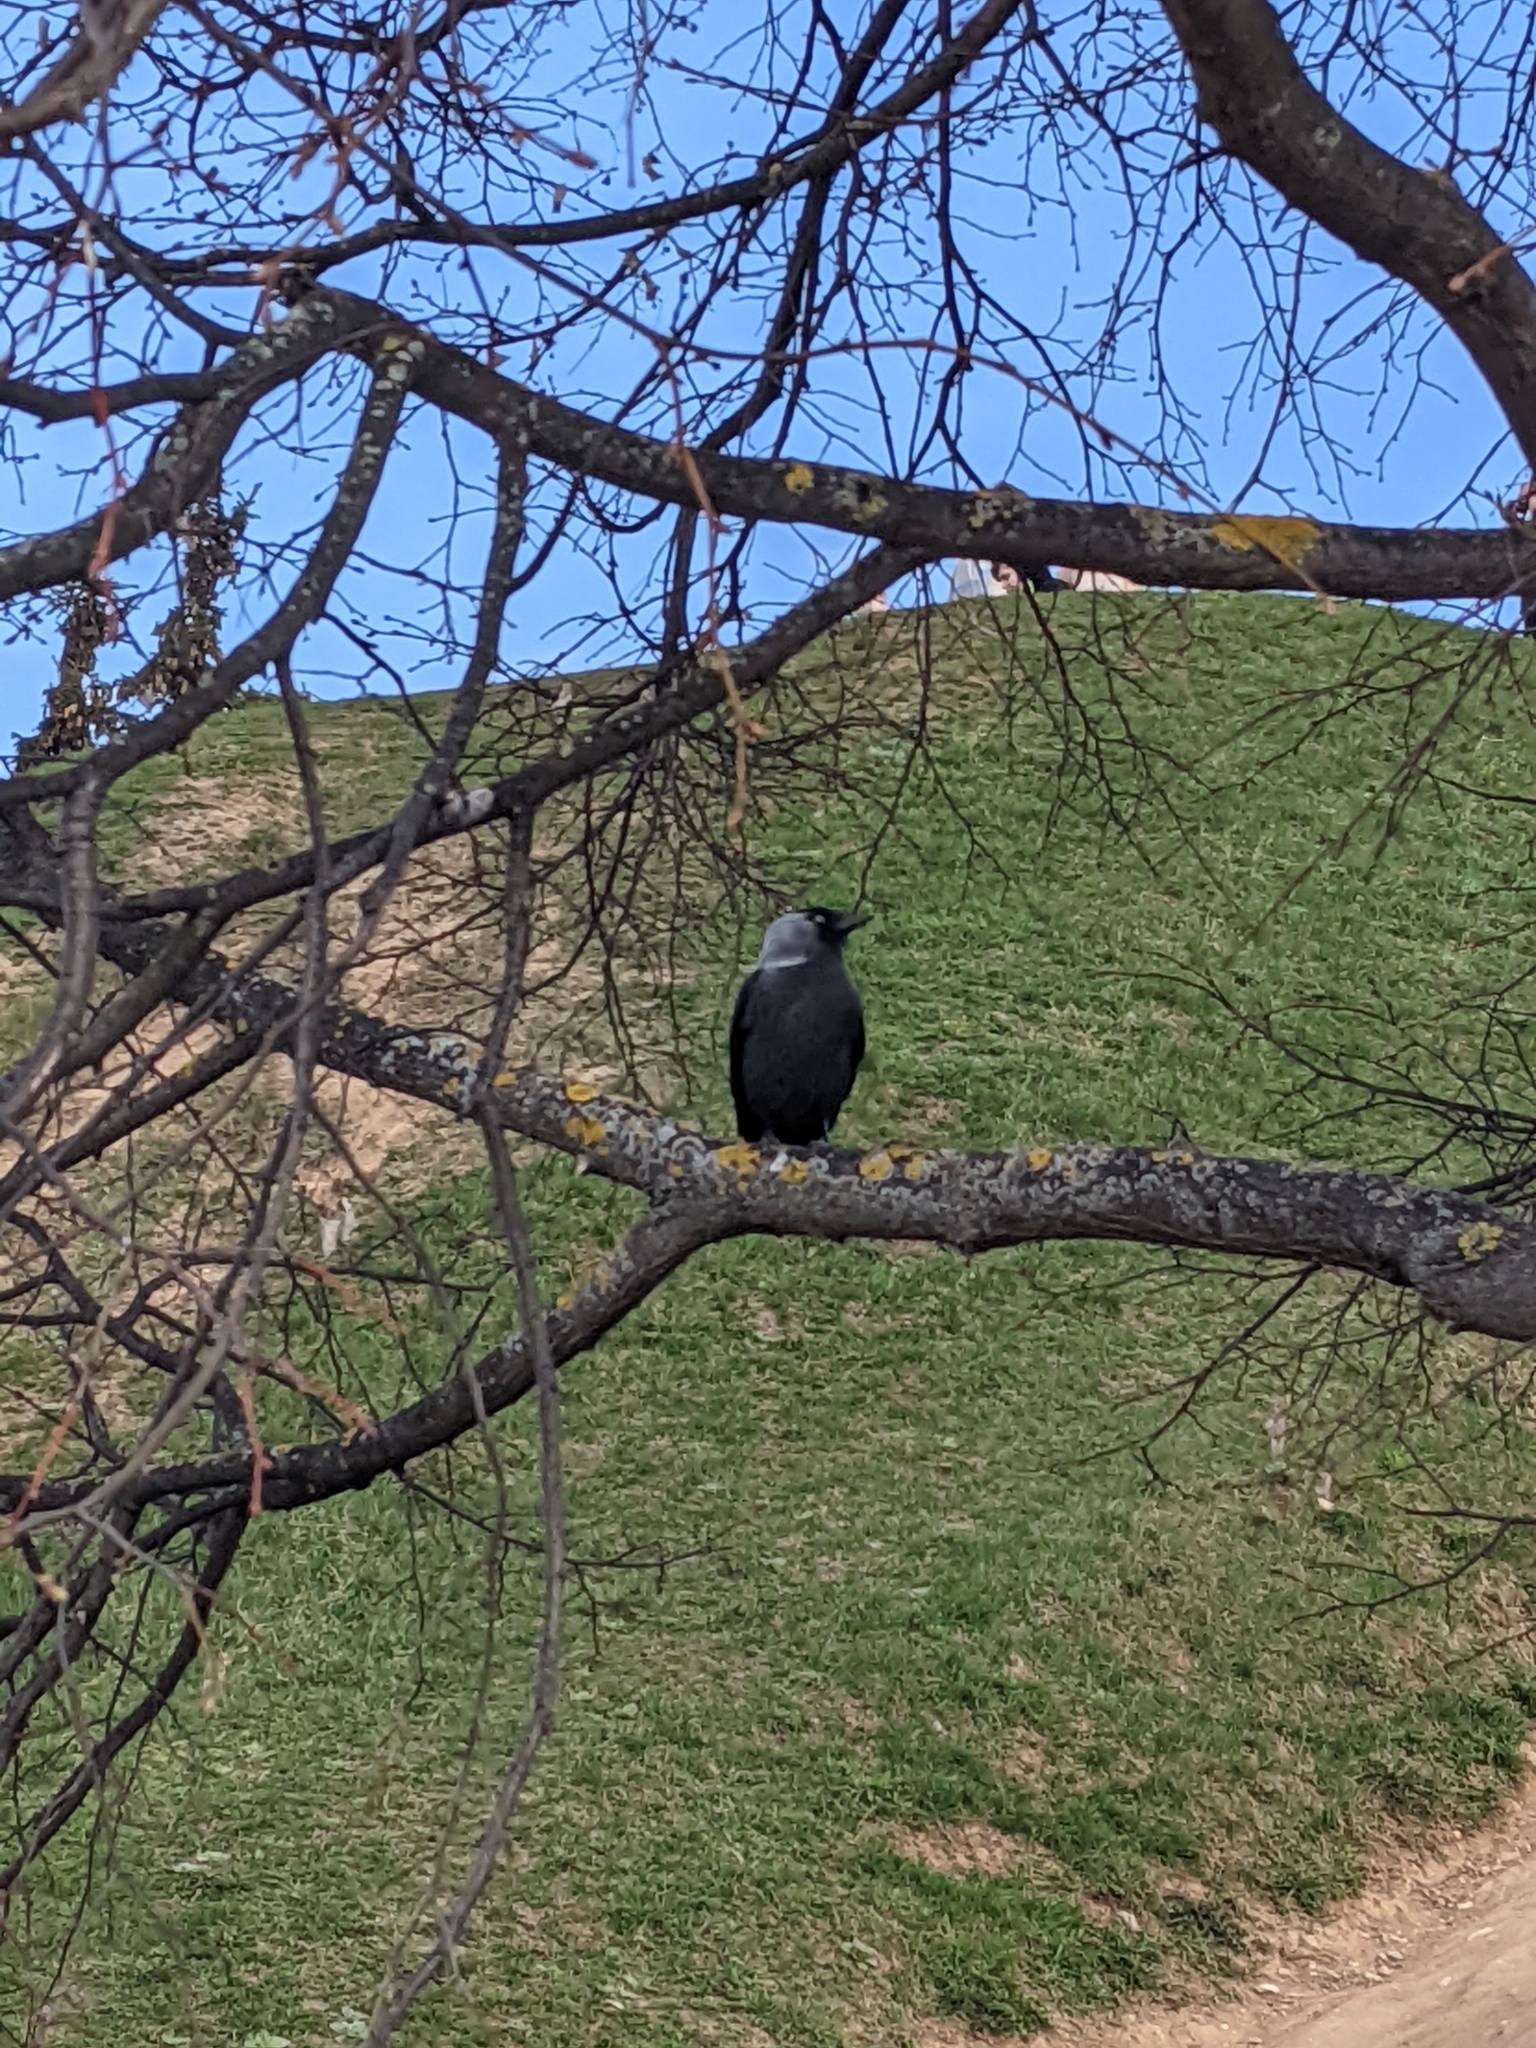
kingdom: Animalia
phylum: Chordata
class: Aves
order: Passeriformes
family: Corvidae
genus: Coloeus
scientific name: Coloeus monedula
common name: Western jackdaw
